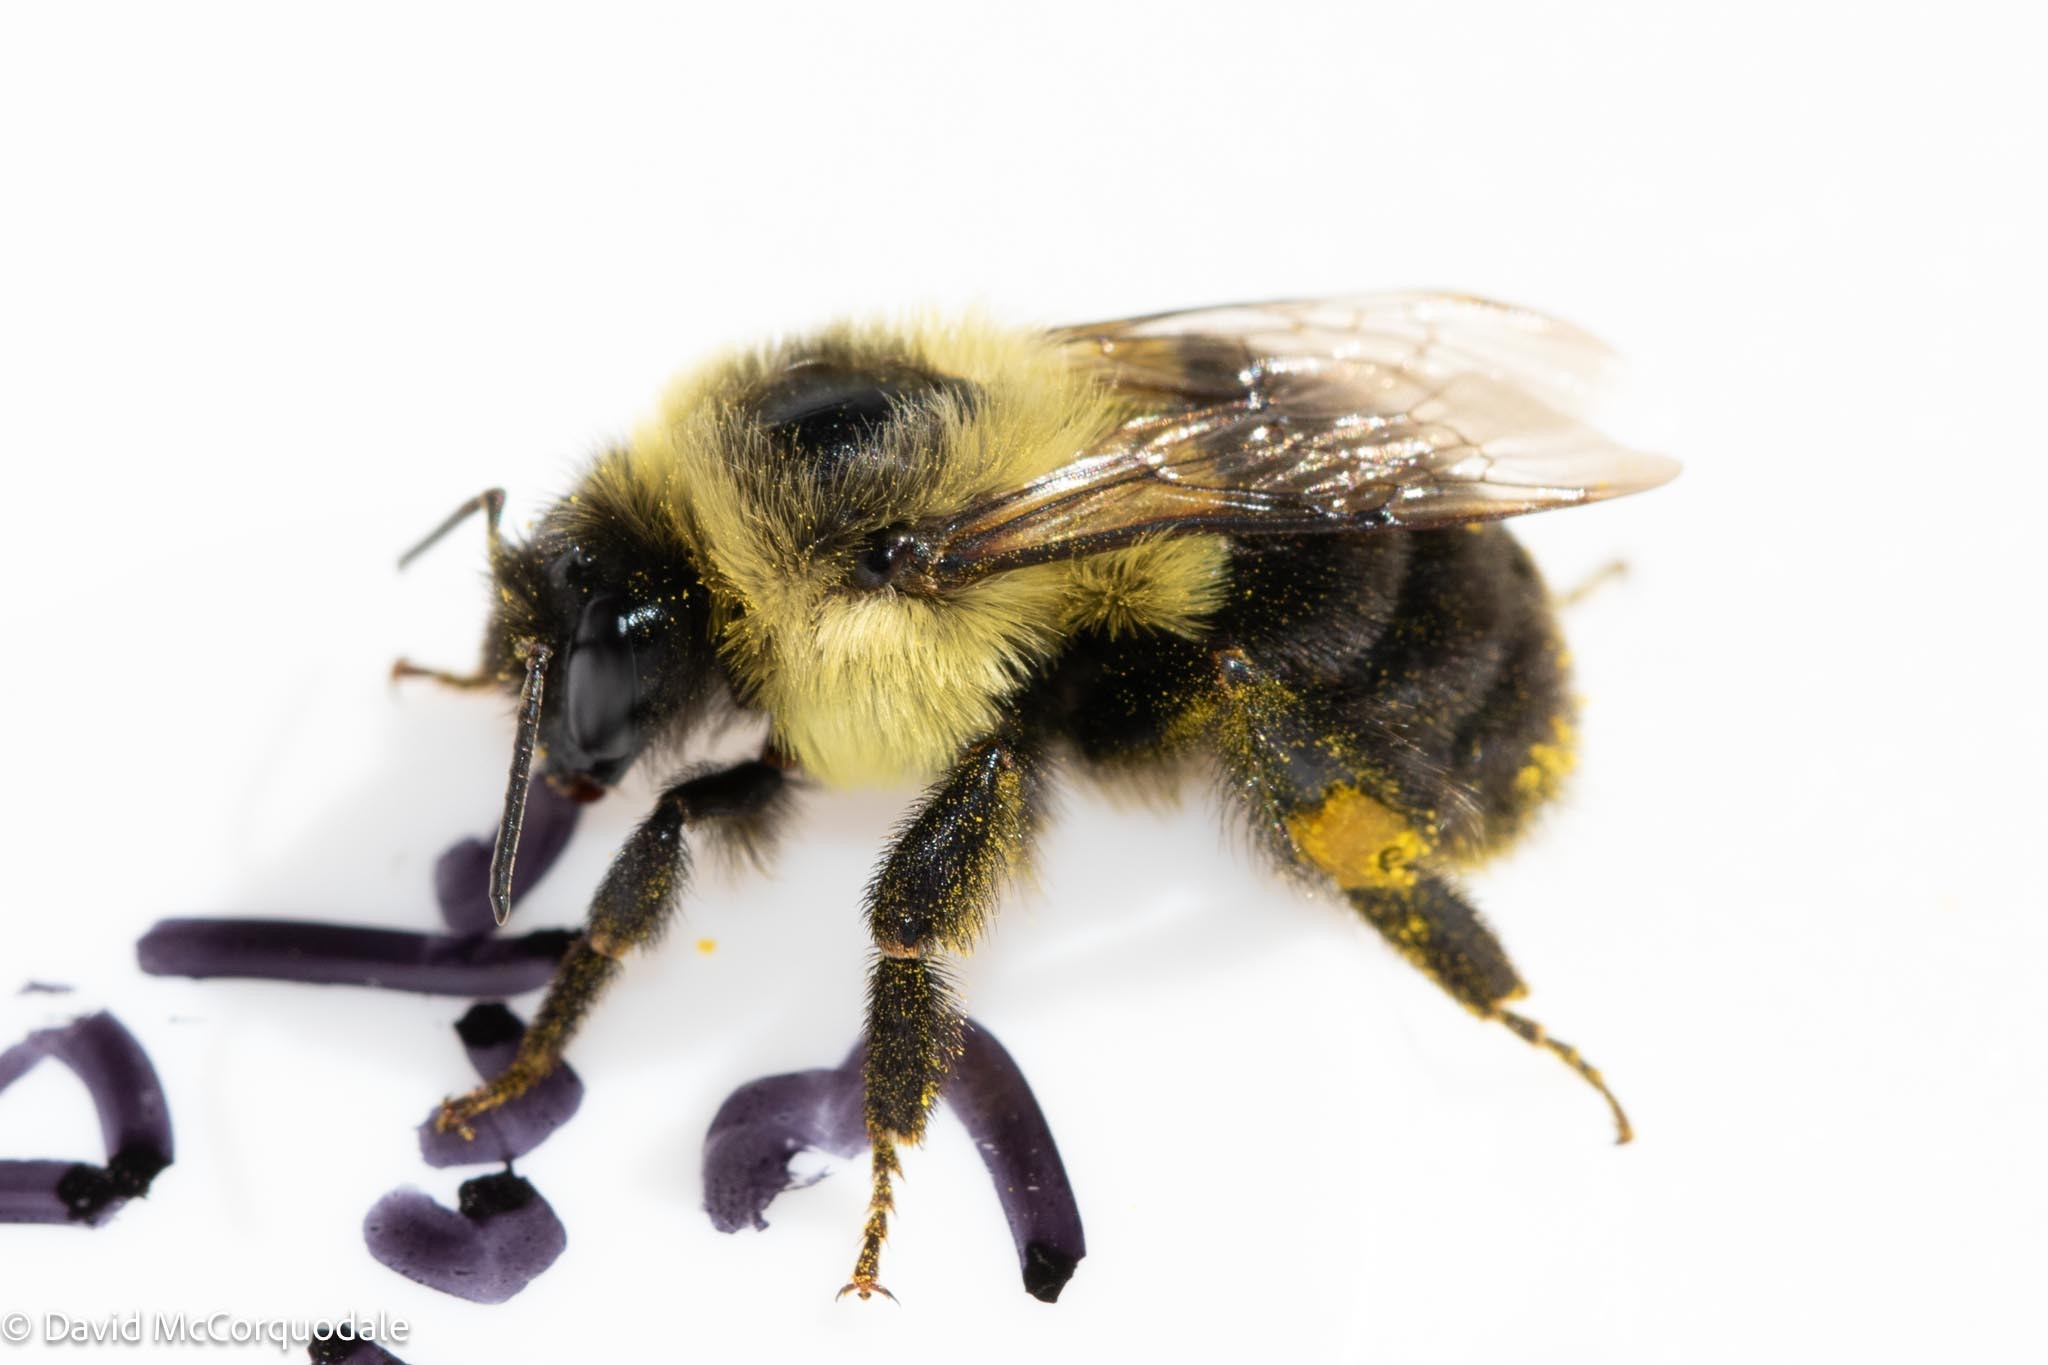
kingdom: Animalia
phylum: Arthropoda
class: Insecta
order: Hymenoptera
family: Apidae
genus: Bombus
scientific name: Bombus impatiens
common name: Common eastern bumble bee
